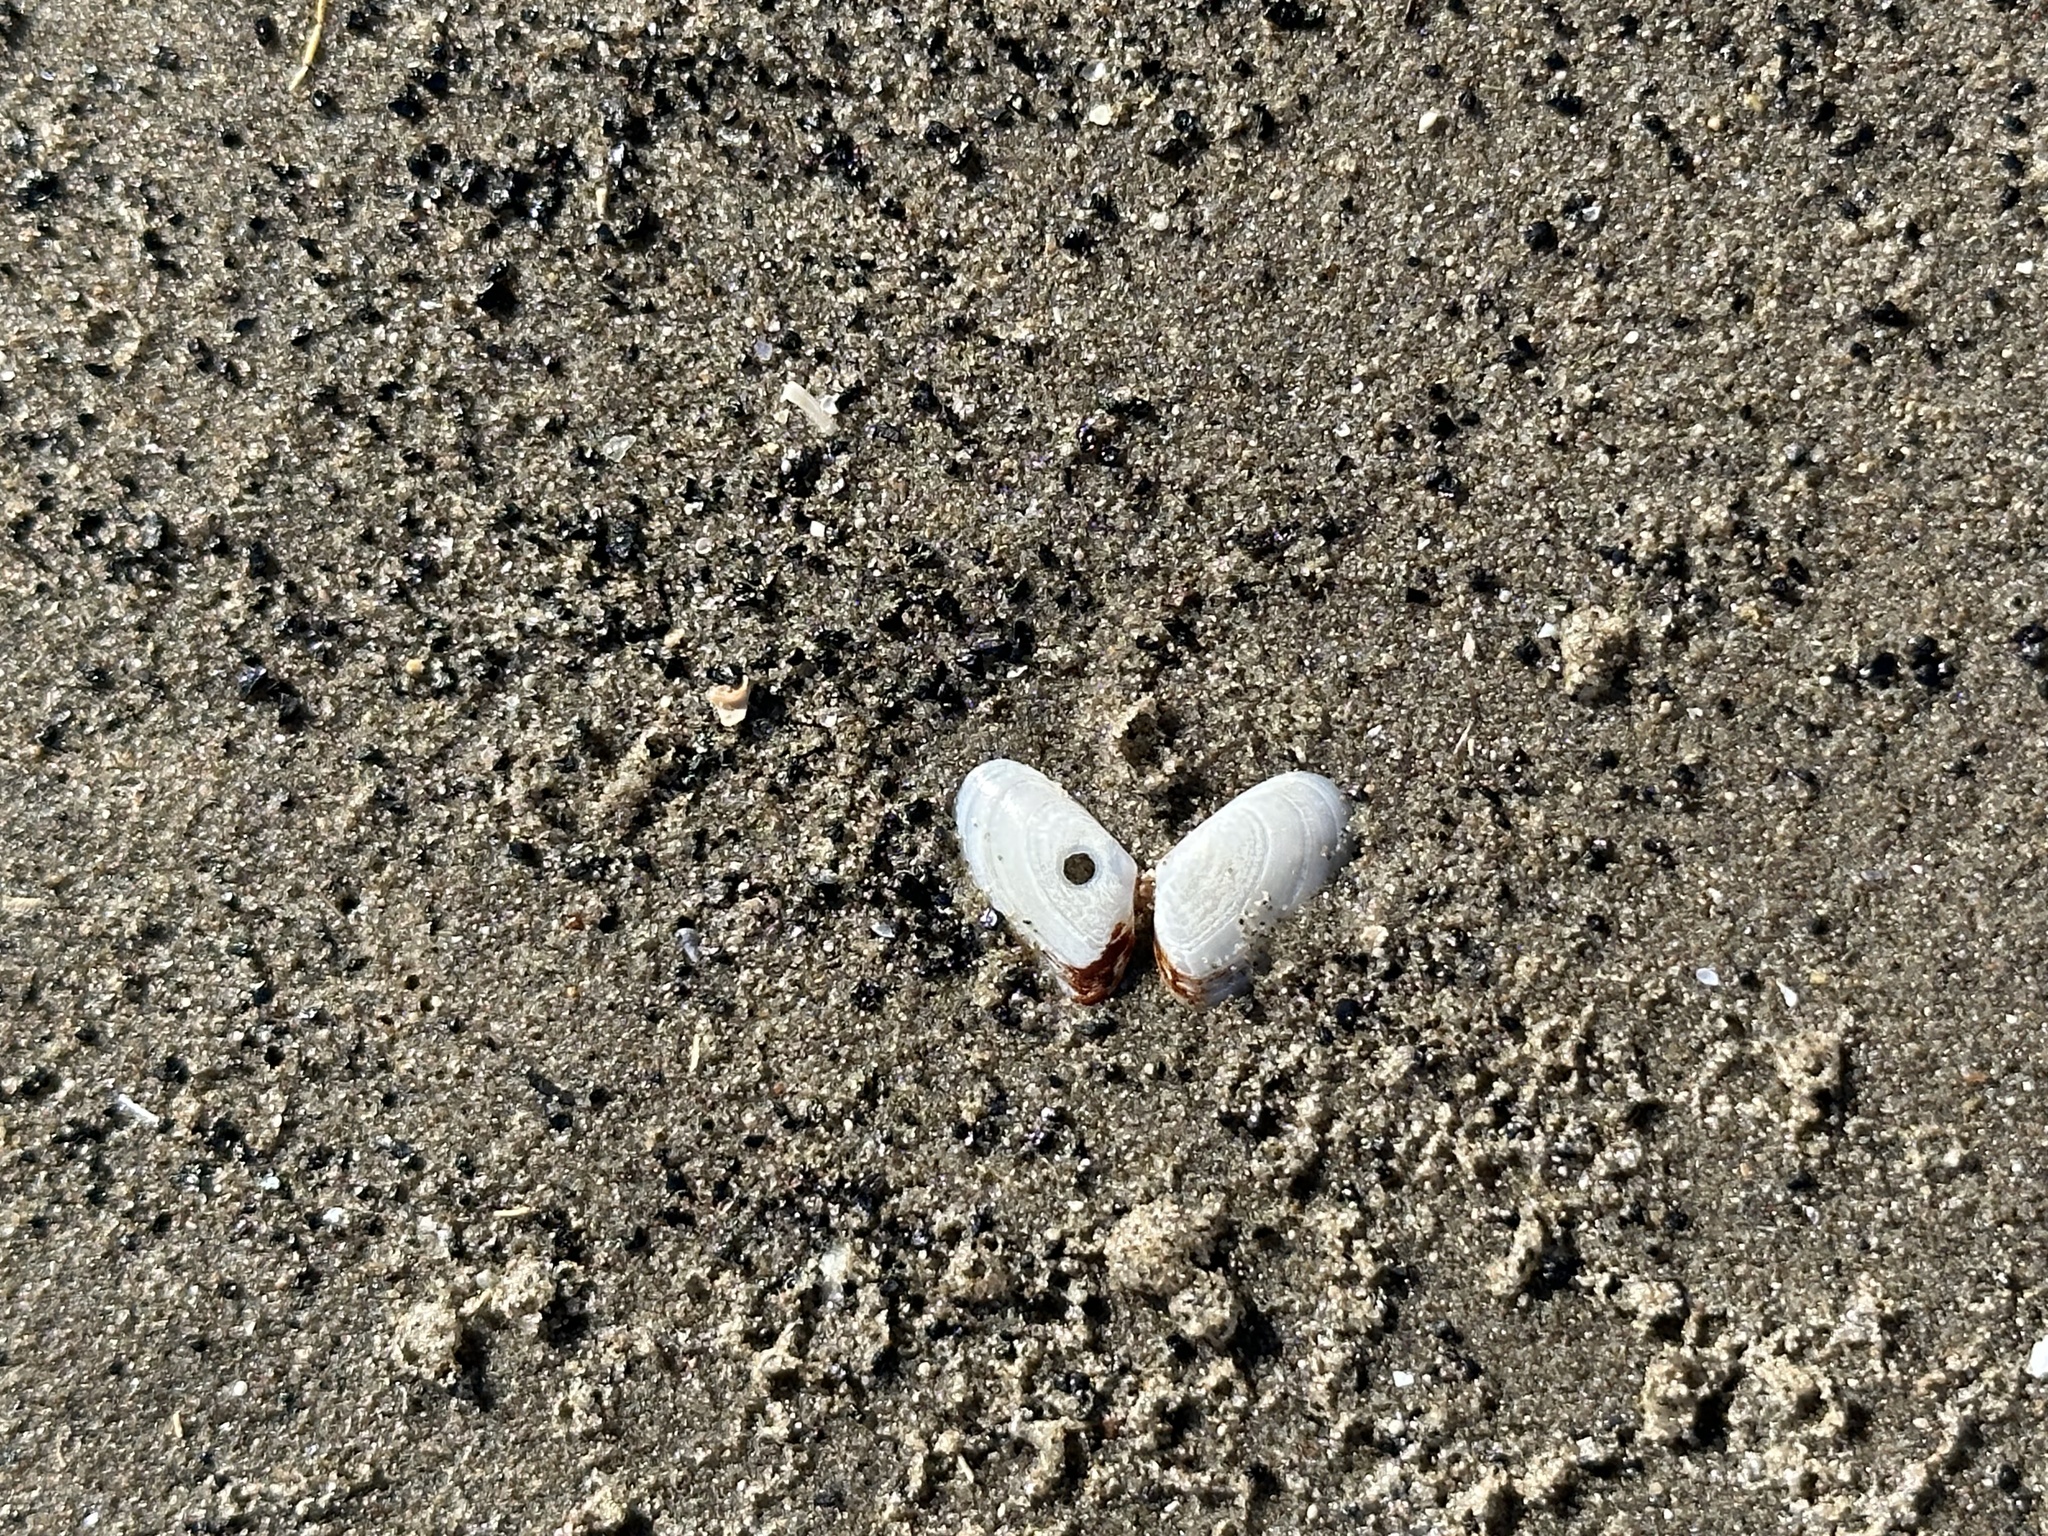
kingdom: Animalia
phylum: Mollusca
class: Bivalvia
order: Cardiida
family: Tellinidae
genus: Ameritella
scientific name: Ameritella agilis
